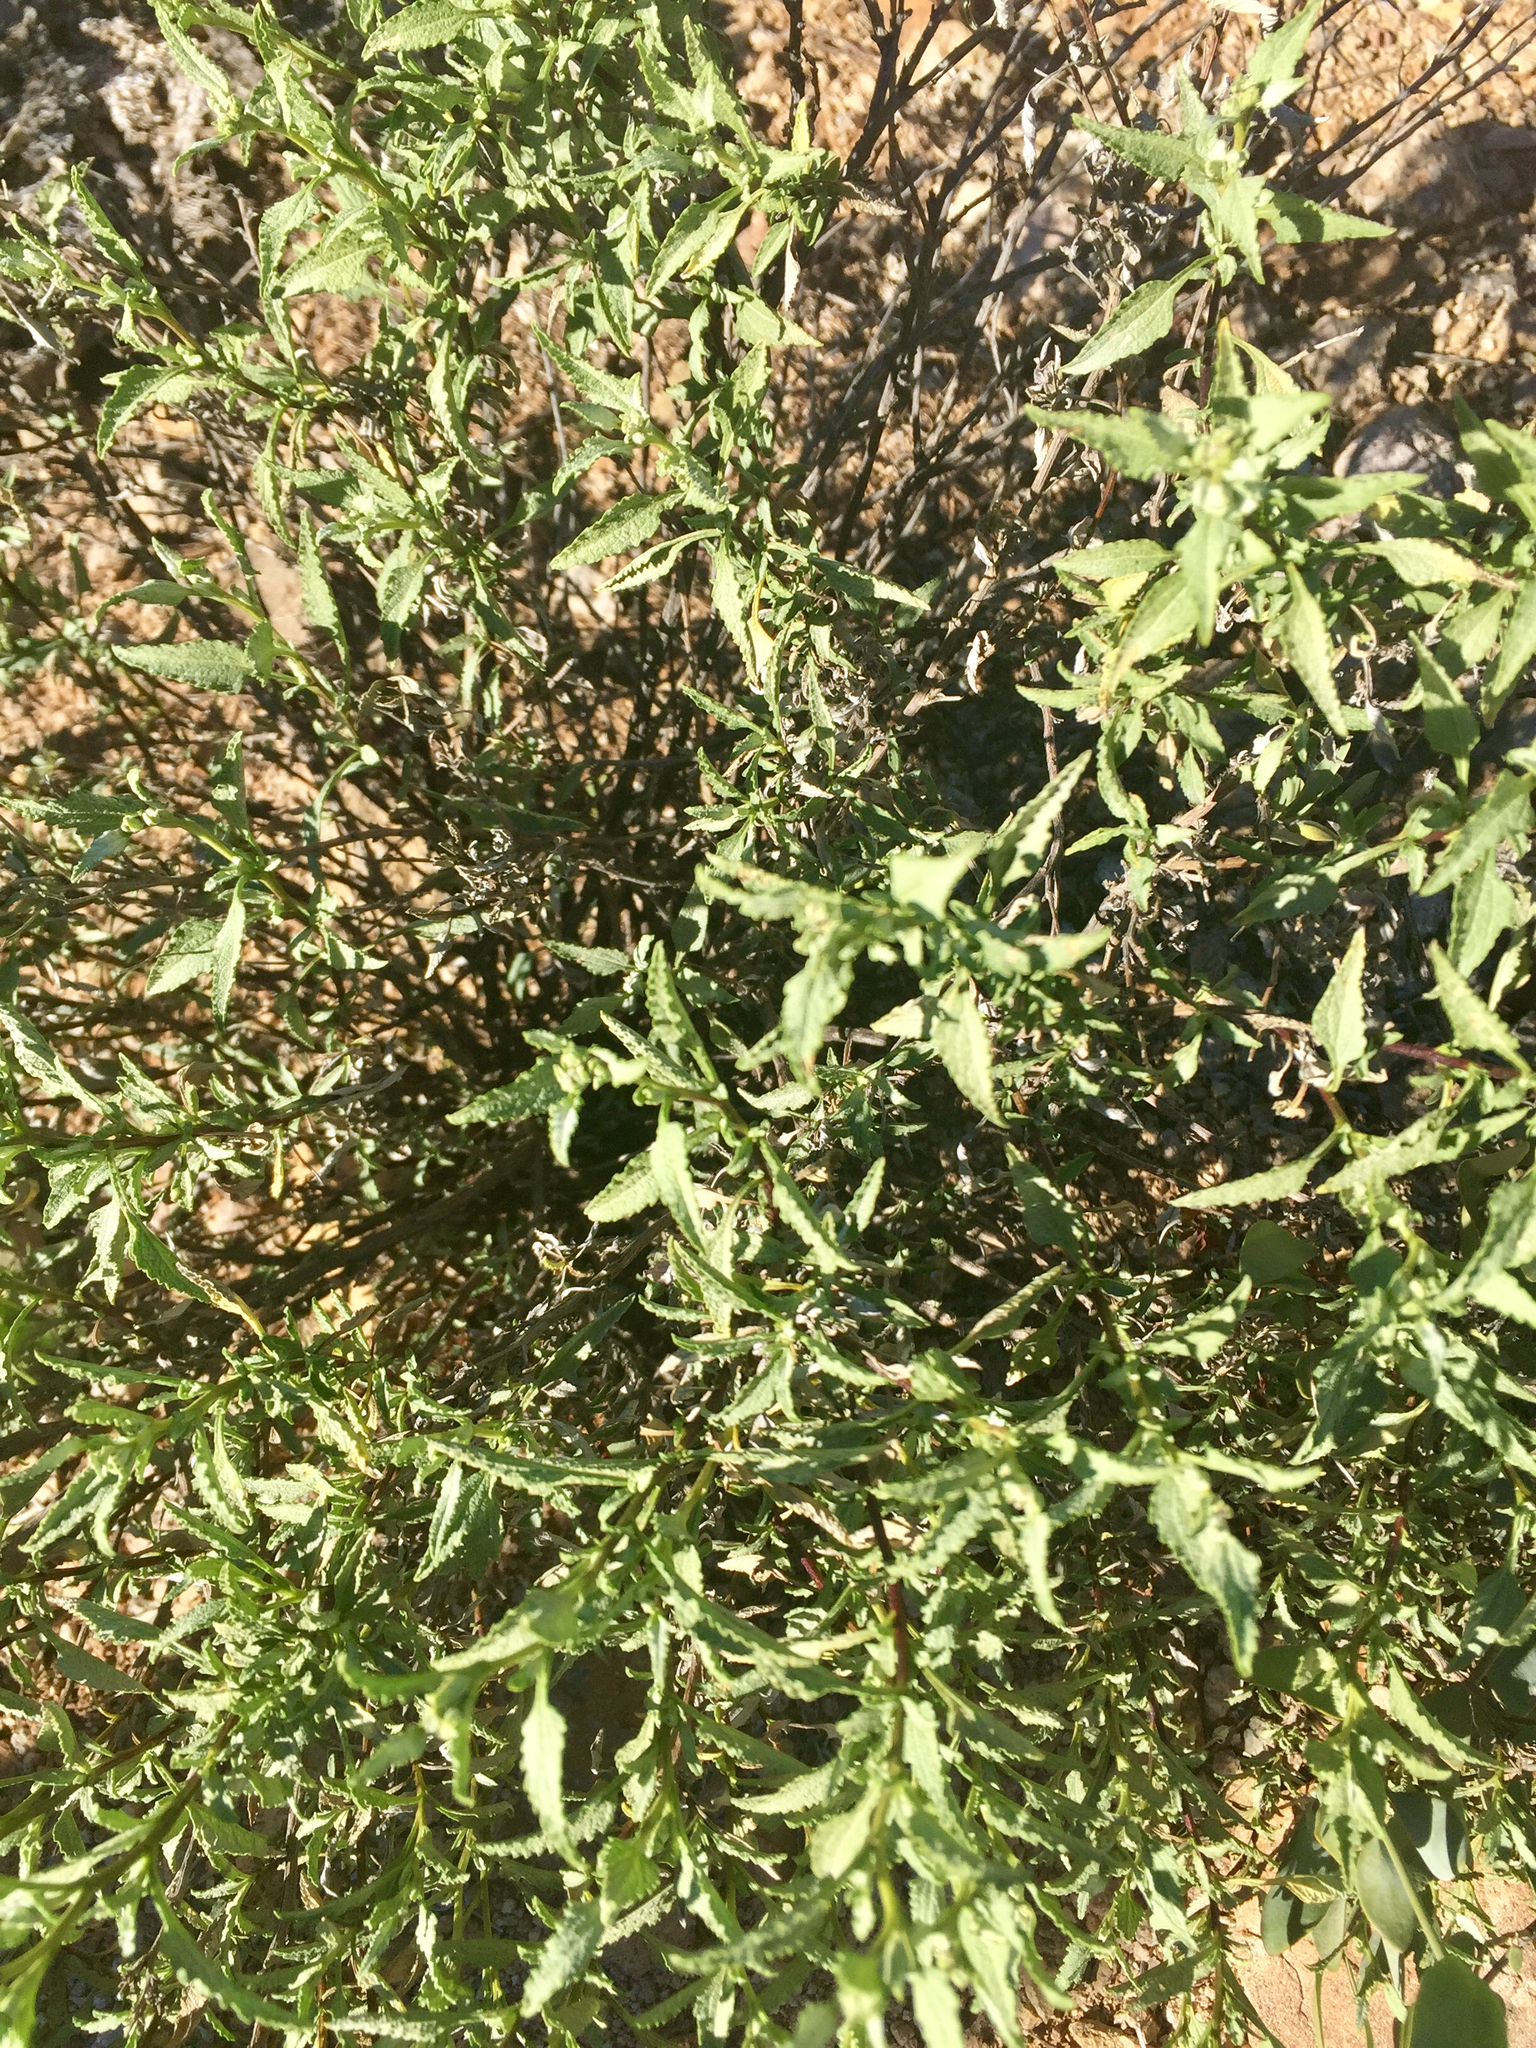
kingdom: Plantae
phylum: Tracheophyta
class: Magnoliopsida
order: Asterales
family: Asteraceae
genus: Ambrosia
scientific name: Ambrosia deltoidea
